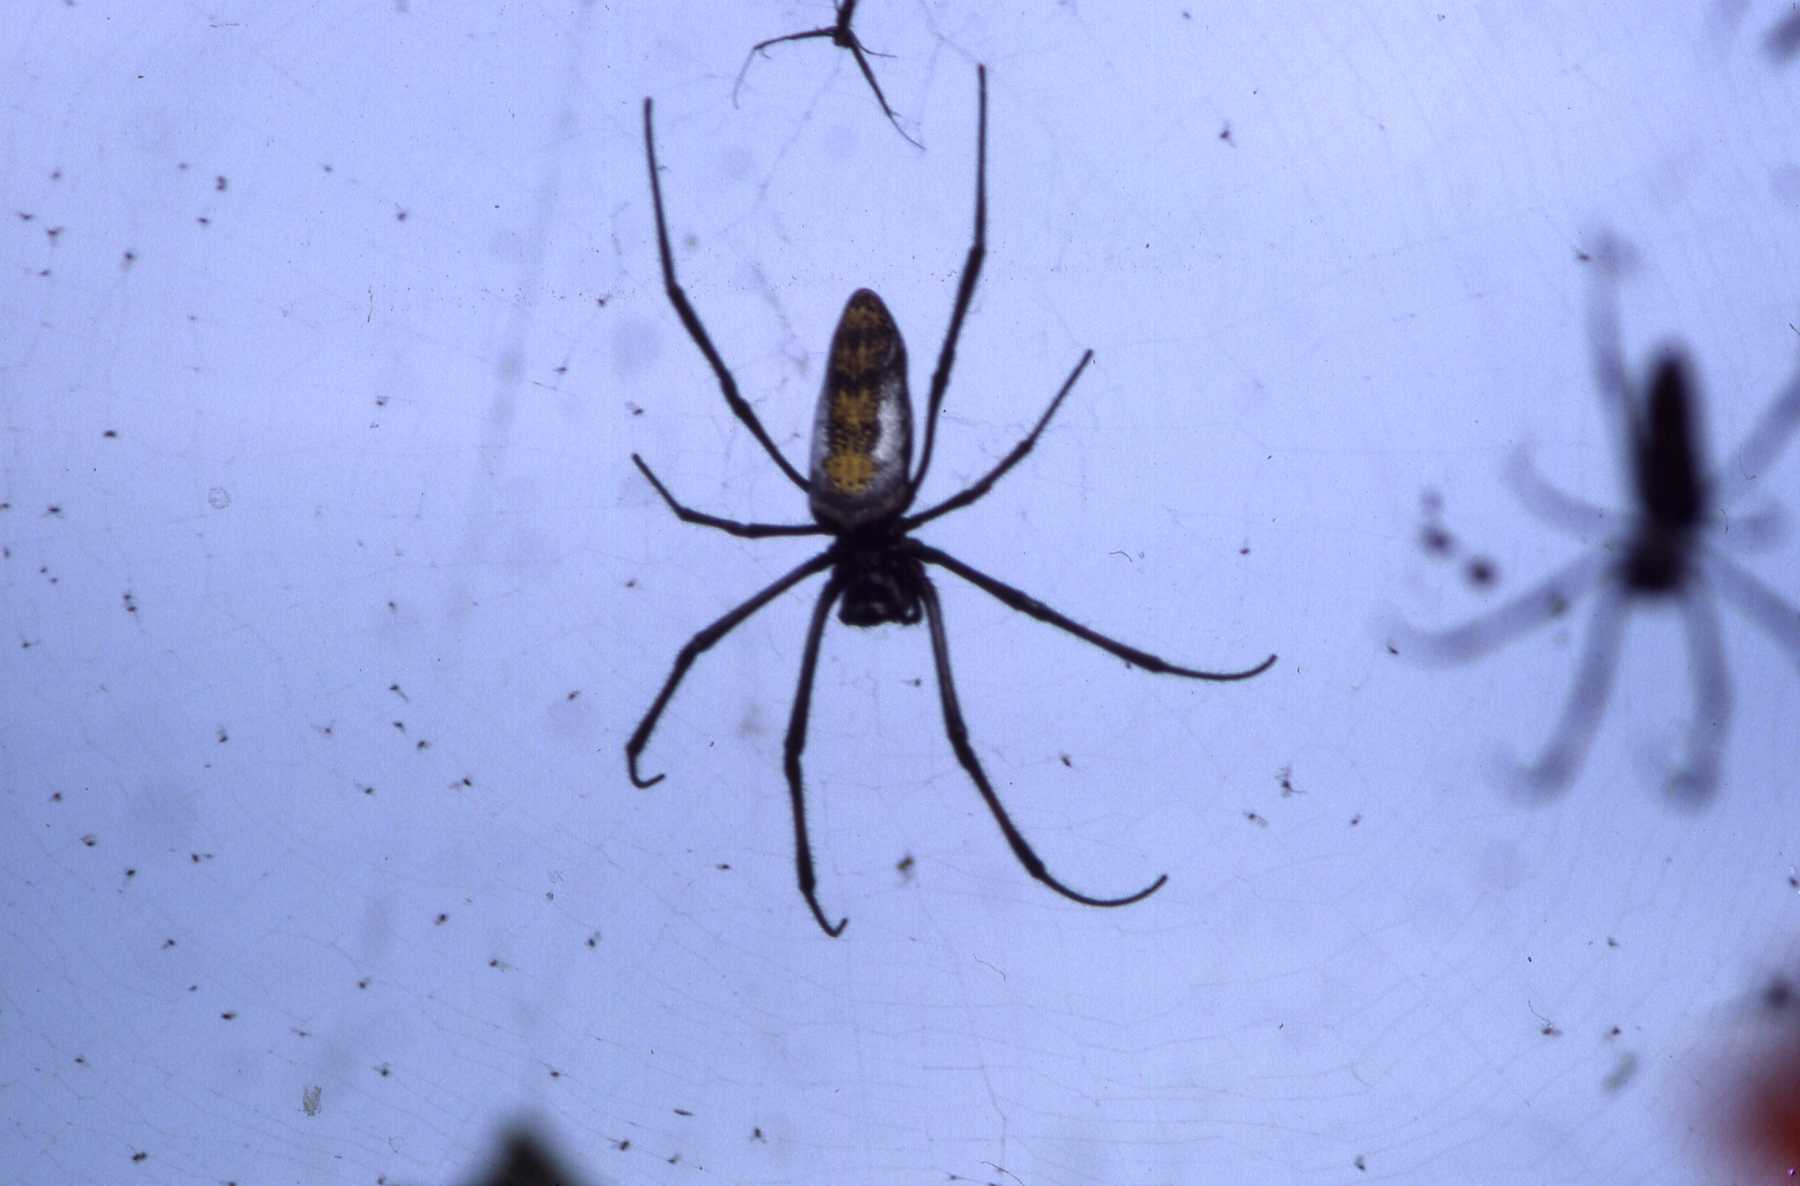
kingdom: Animalia
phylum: Arthropoda
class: Arachnida
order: Araneae
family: Araneidae
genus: Trichonephila
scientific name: Trichonephila inaurata
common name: Red-legged golden orb weaver
